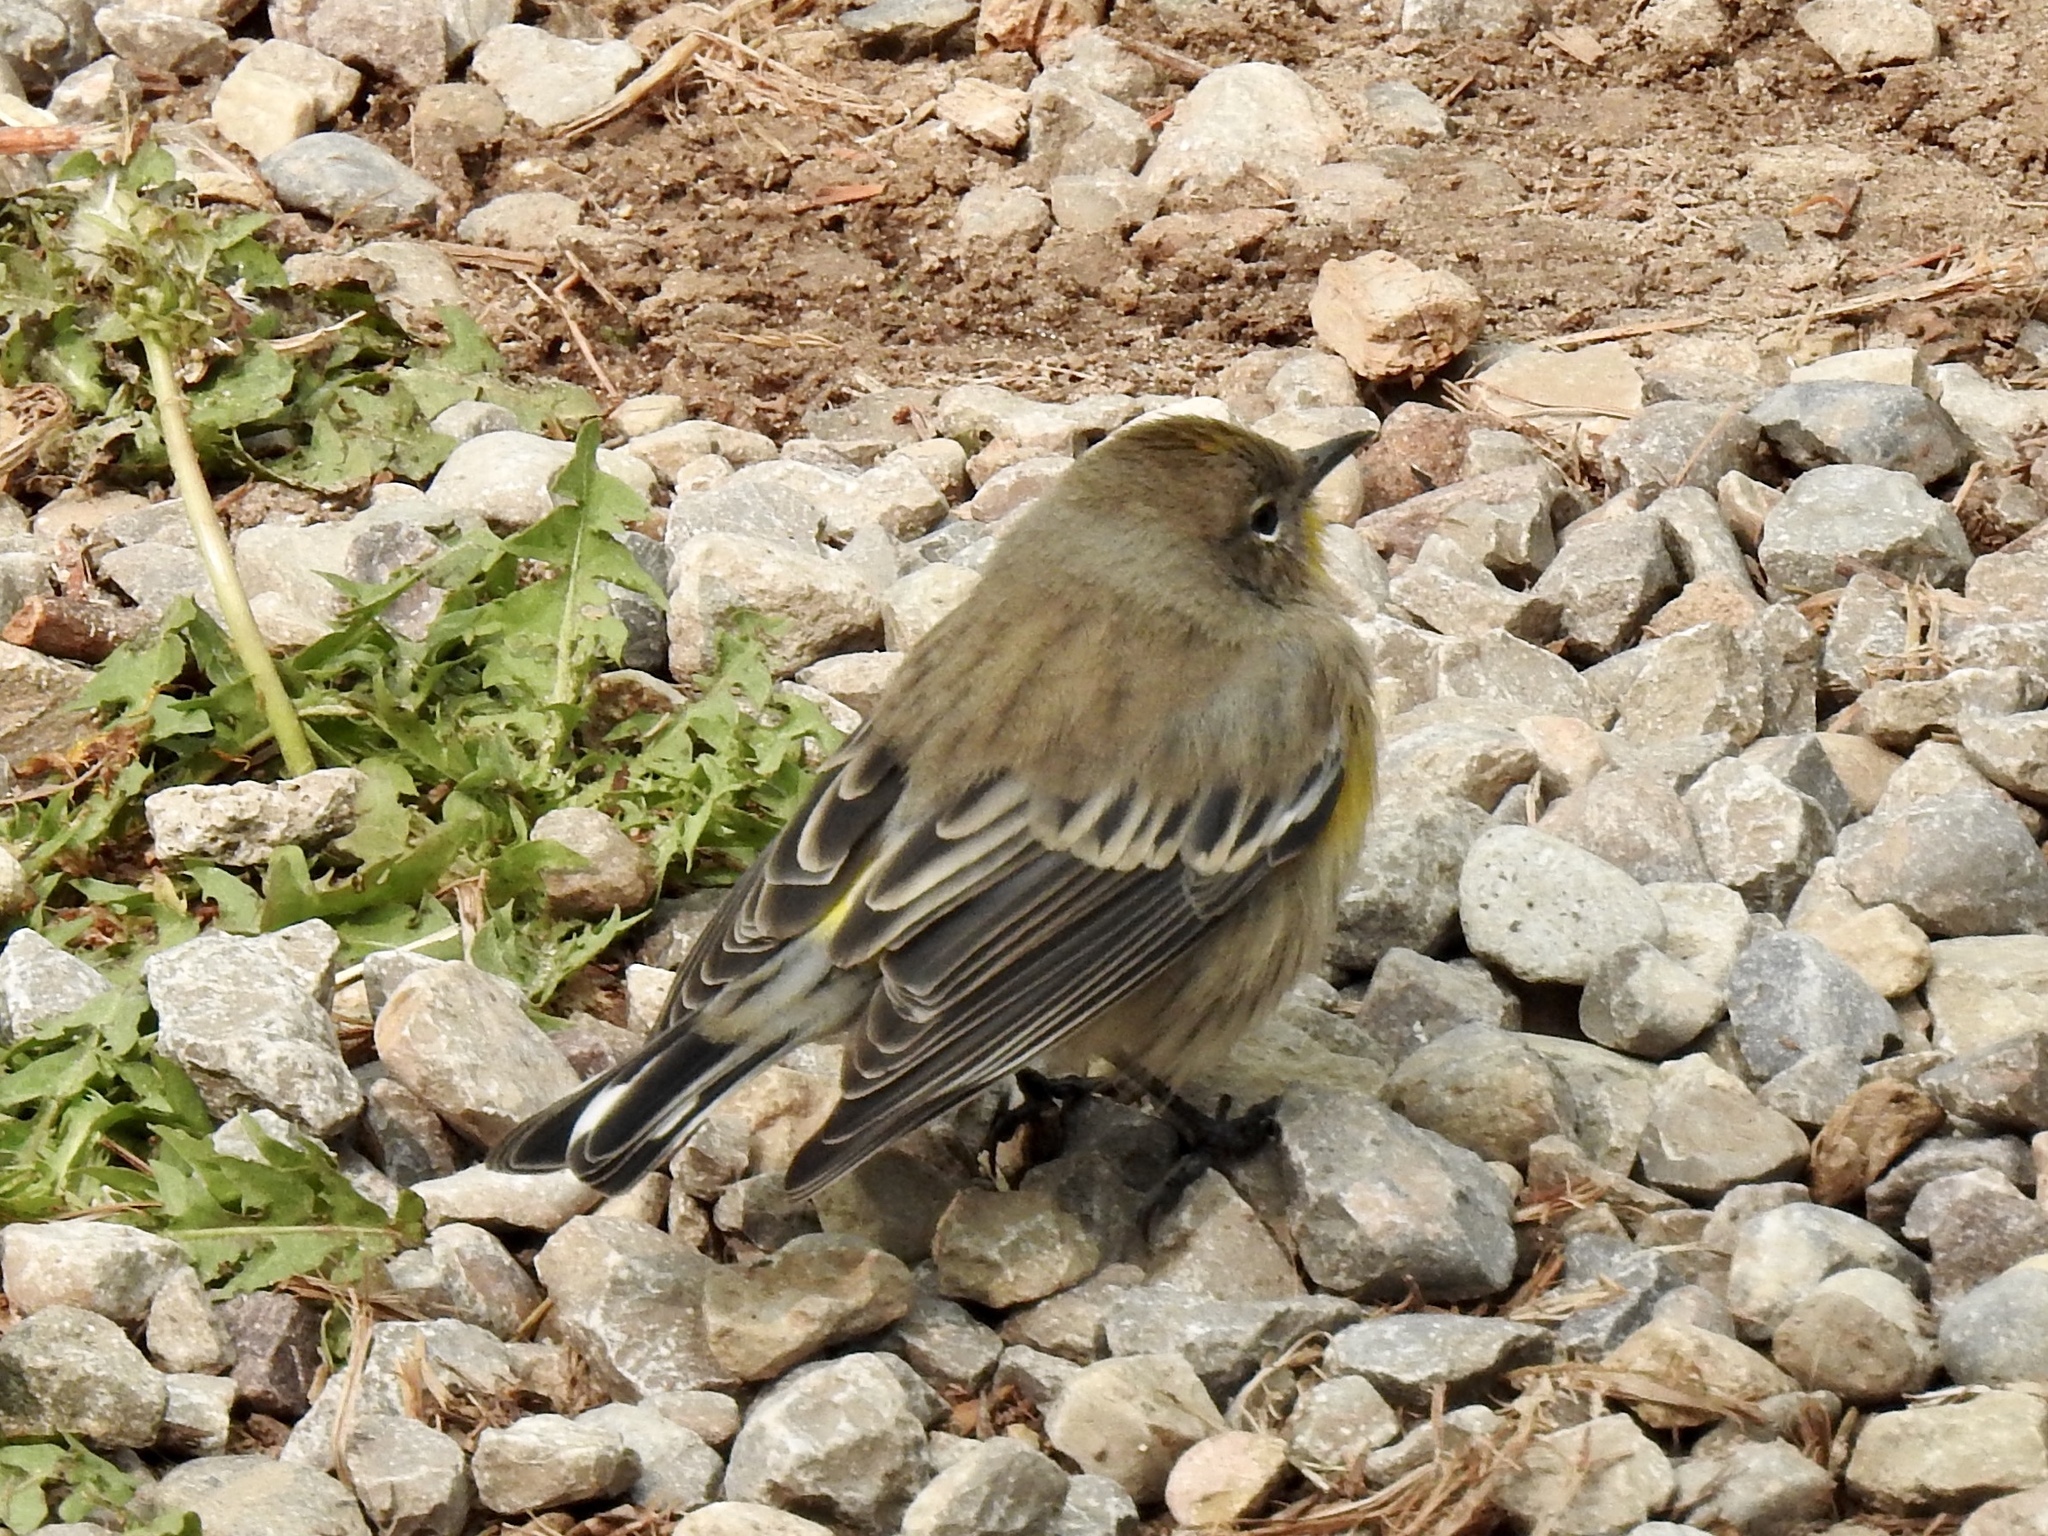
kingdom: Animalia
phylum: Chordata
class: Aves
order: Passeriformes
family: Parulidae
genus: Setophaga
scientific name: Setophaga auduboni
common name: Audubon's warbler
